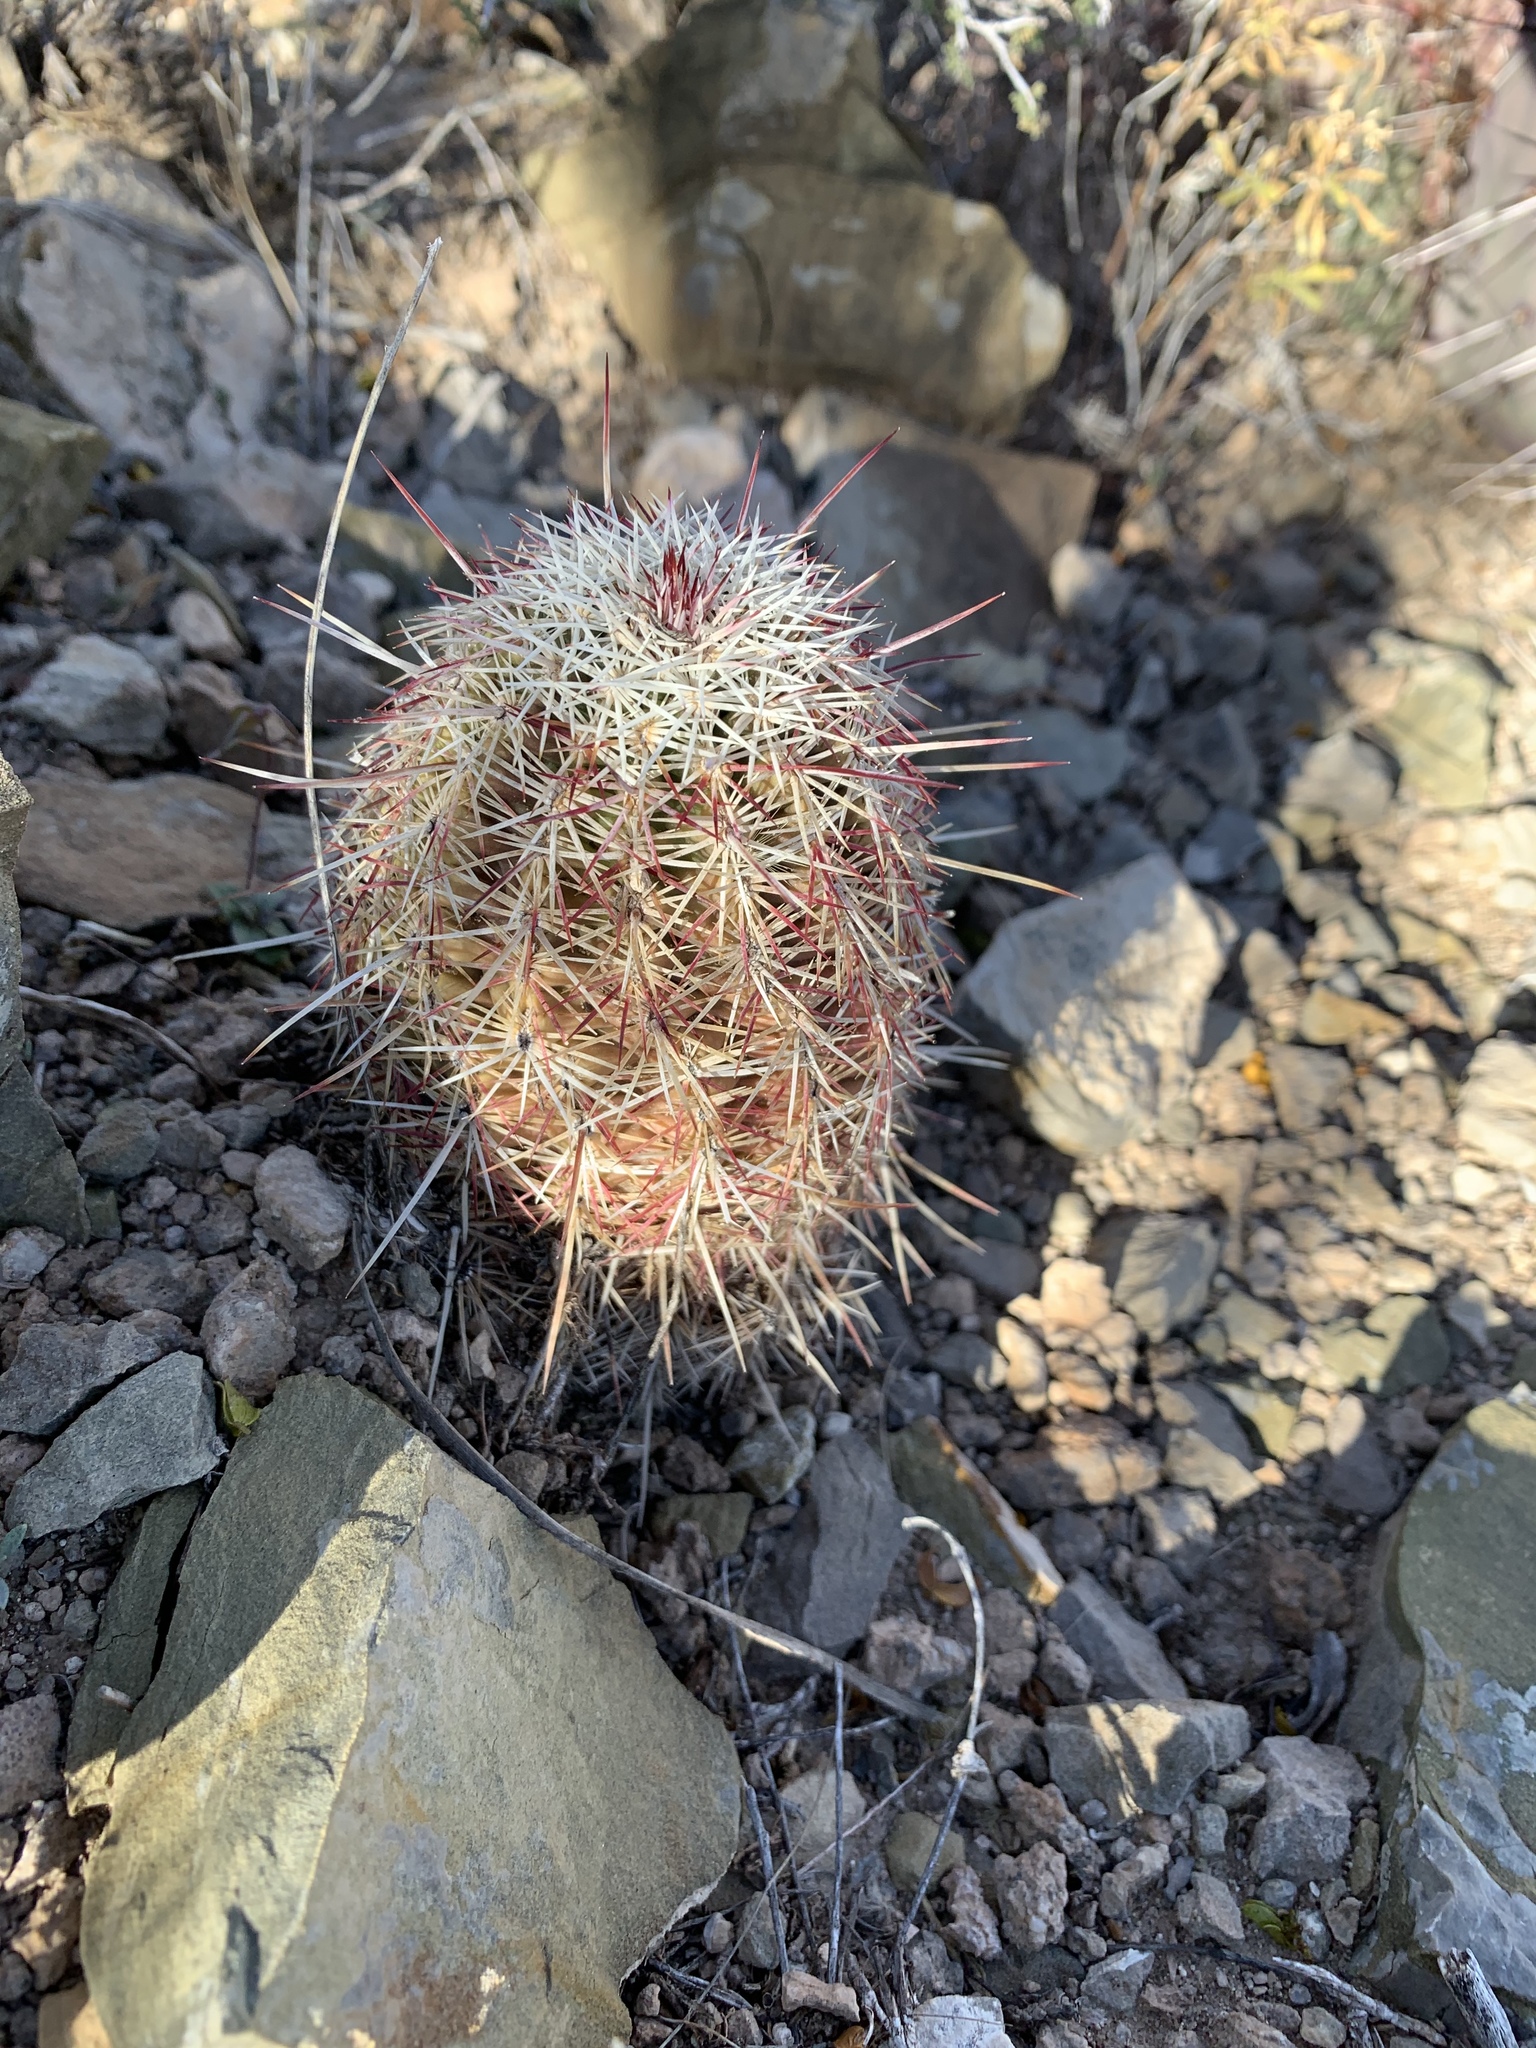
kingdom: Plantae
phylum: Tracheophyta
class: Magnoliopsida
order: Caryophyllales
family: Cactaceae
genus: Echinocereus
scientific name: Echinocereus viridiflorus
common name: Nylon hedgehog cactus
